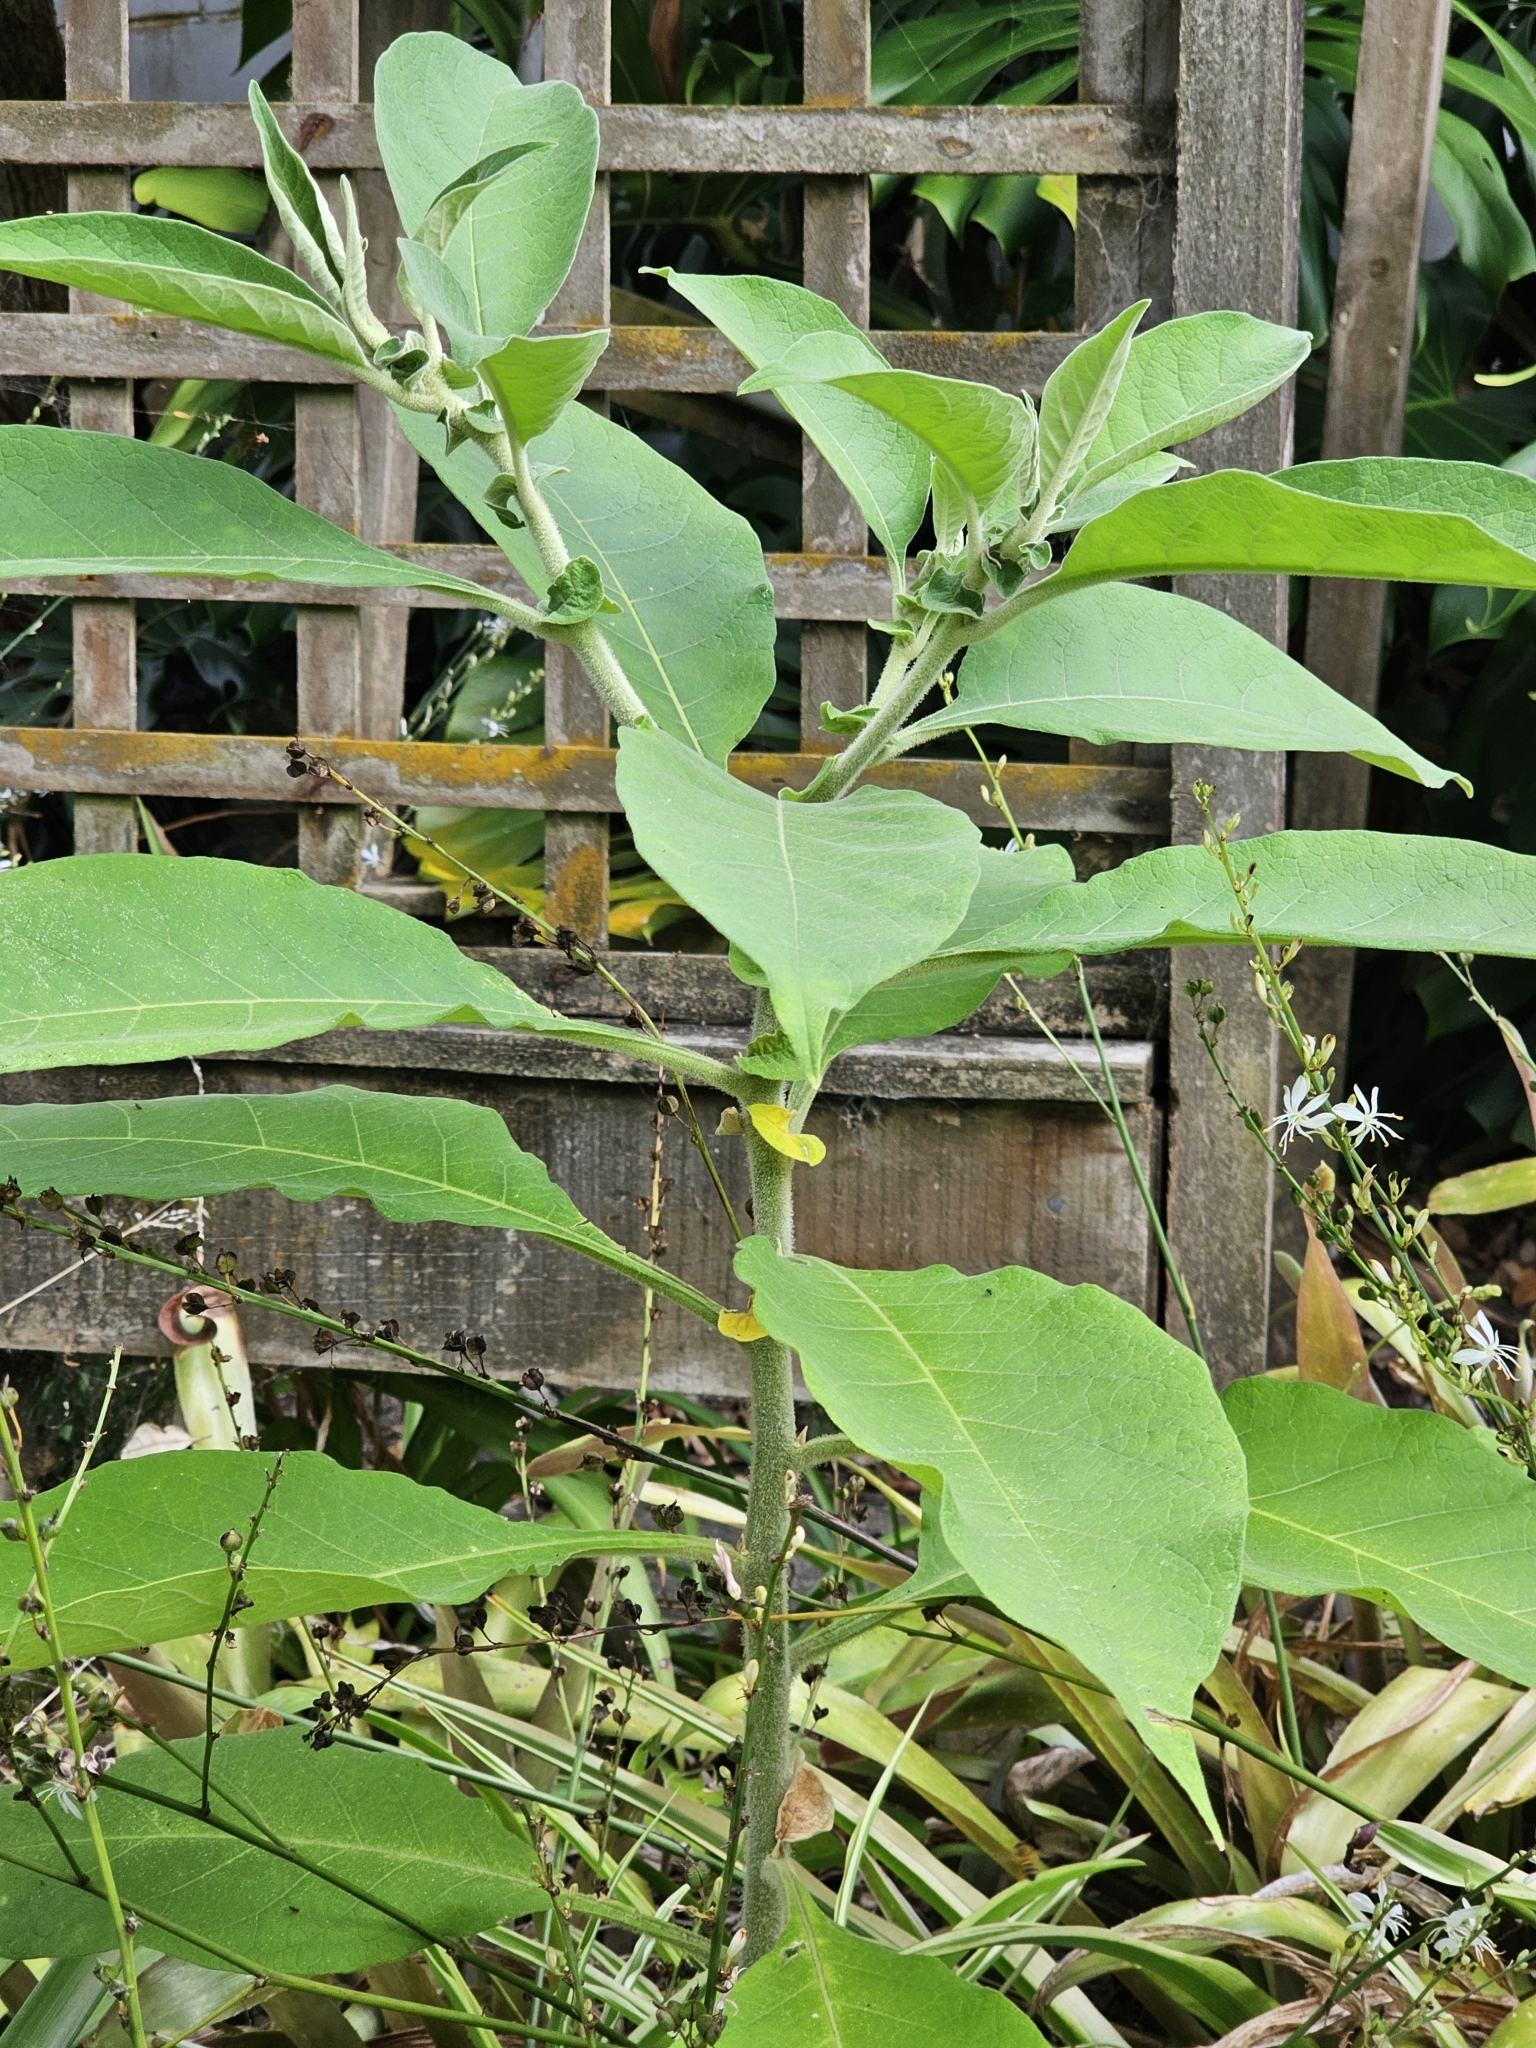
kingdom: Plantae
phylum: Tracheophyta
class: Magnoliopsida
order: Solanales
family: Solanaceae
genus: Solanum
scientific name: Solanum mauritianum
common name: Earleaf nightshade
